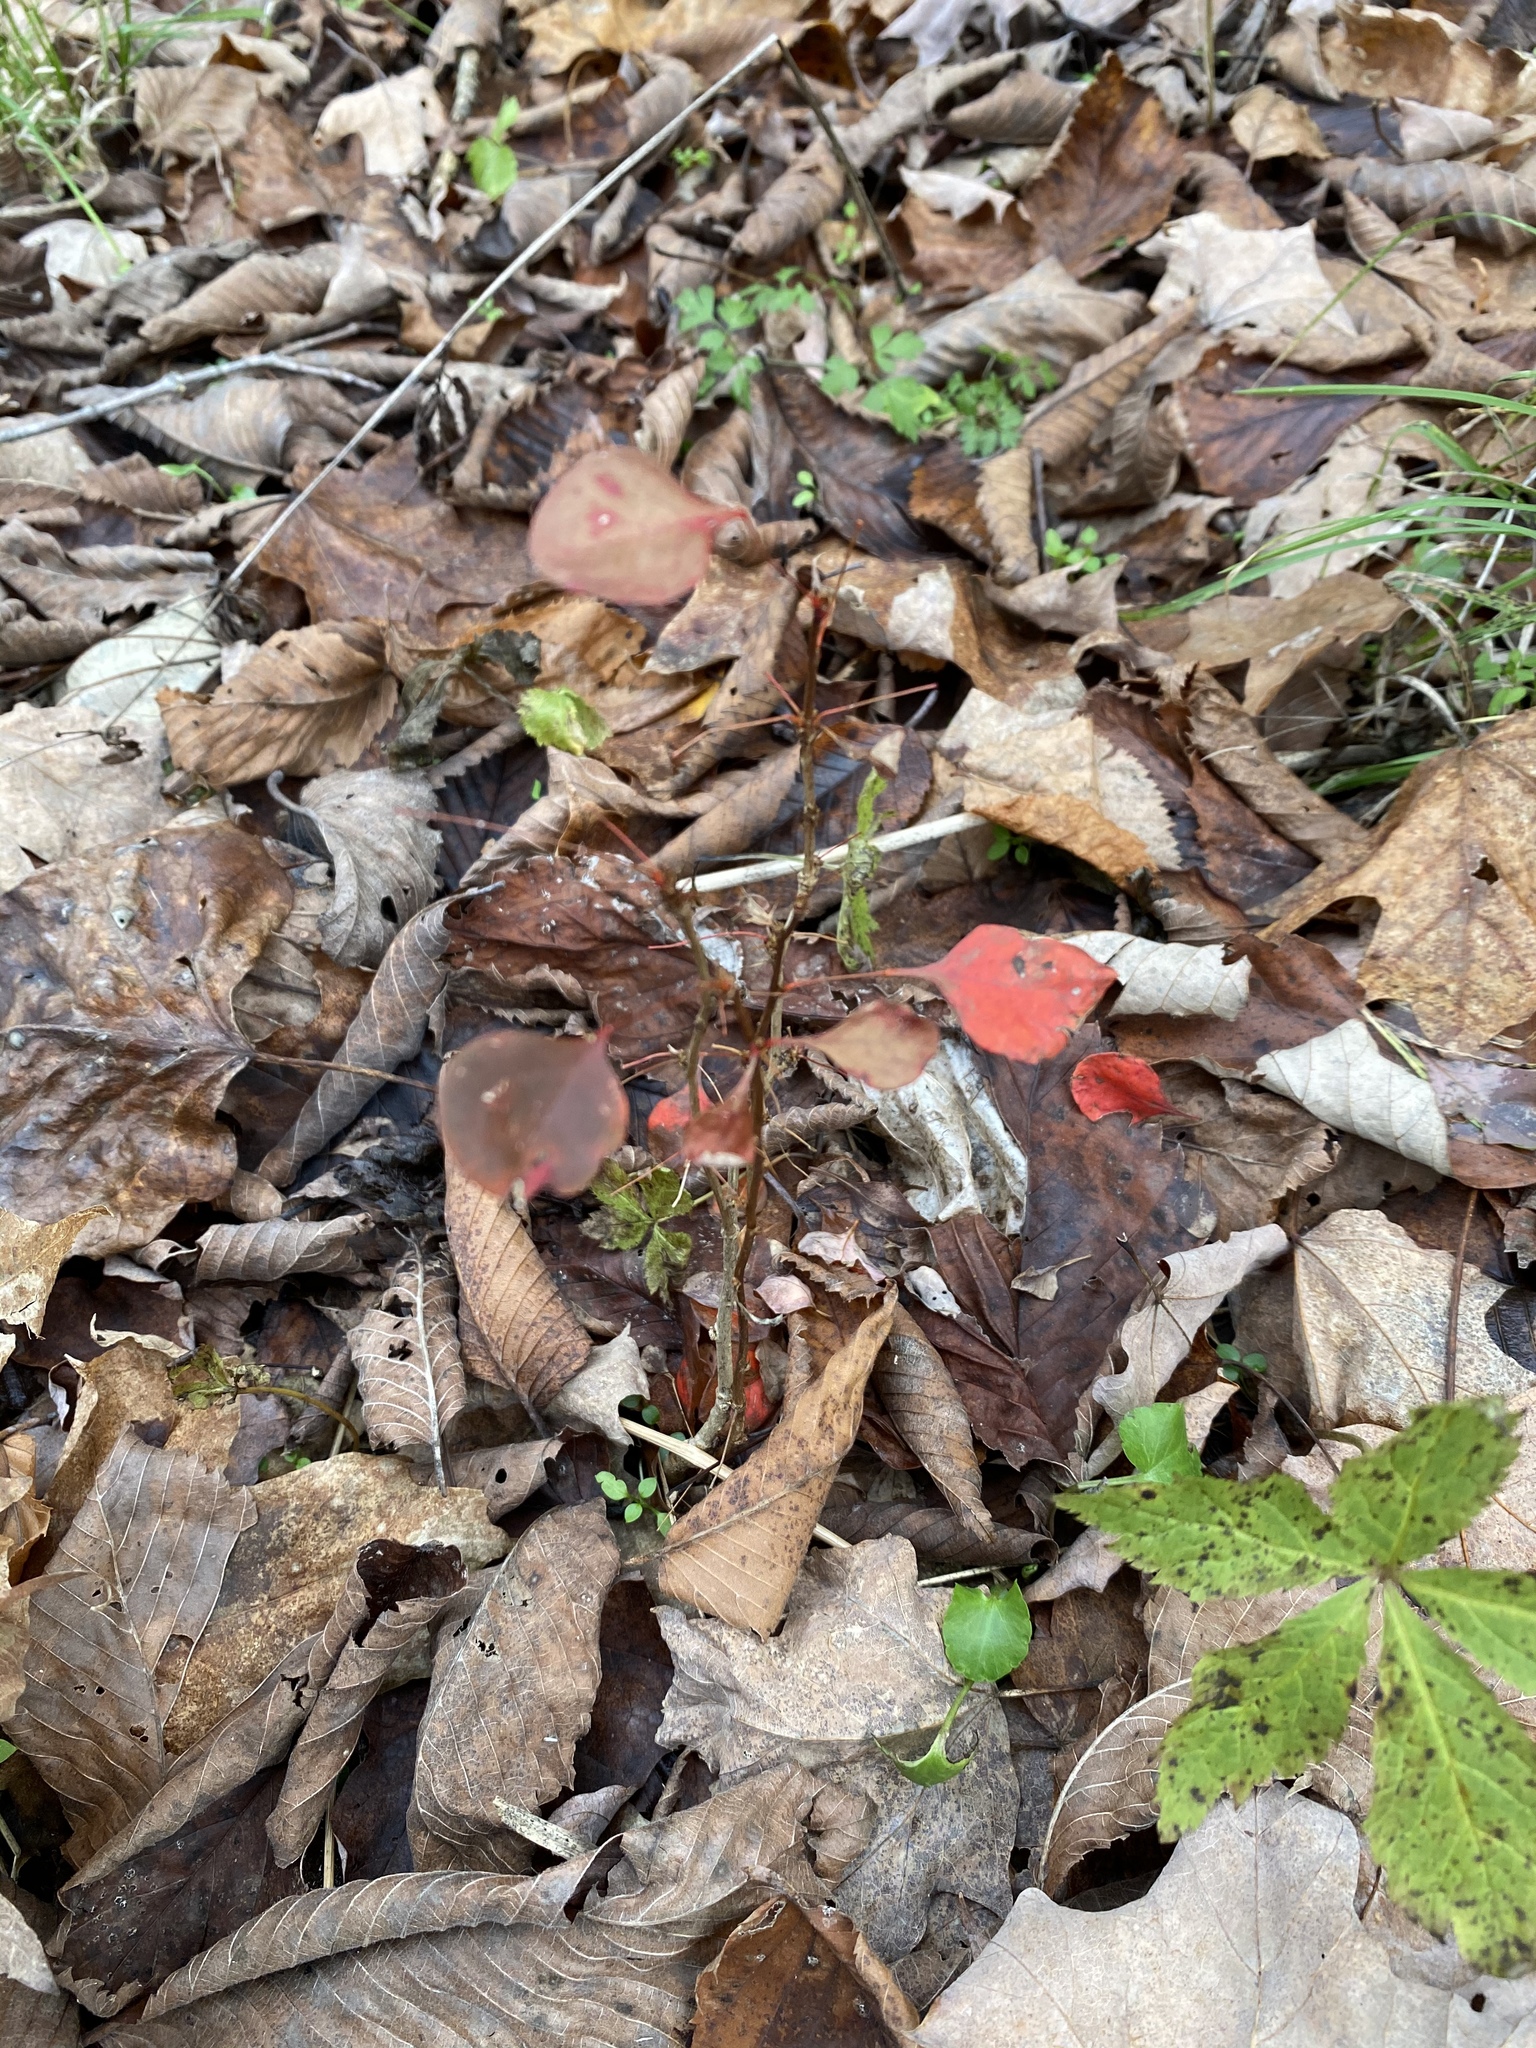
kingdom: Plantae
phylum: Tracheophyta
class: Magnoliopsida
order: Ranunculales
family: Berberidaceae
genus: Berberis
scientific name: Berberis thunbergii
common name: Japanese barberry
